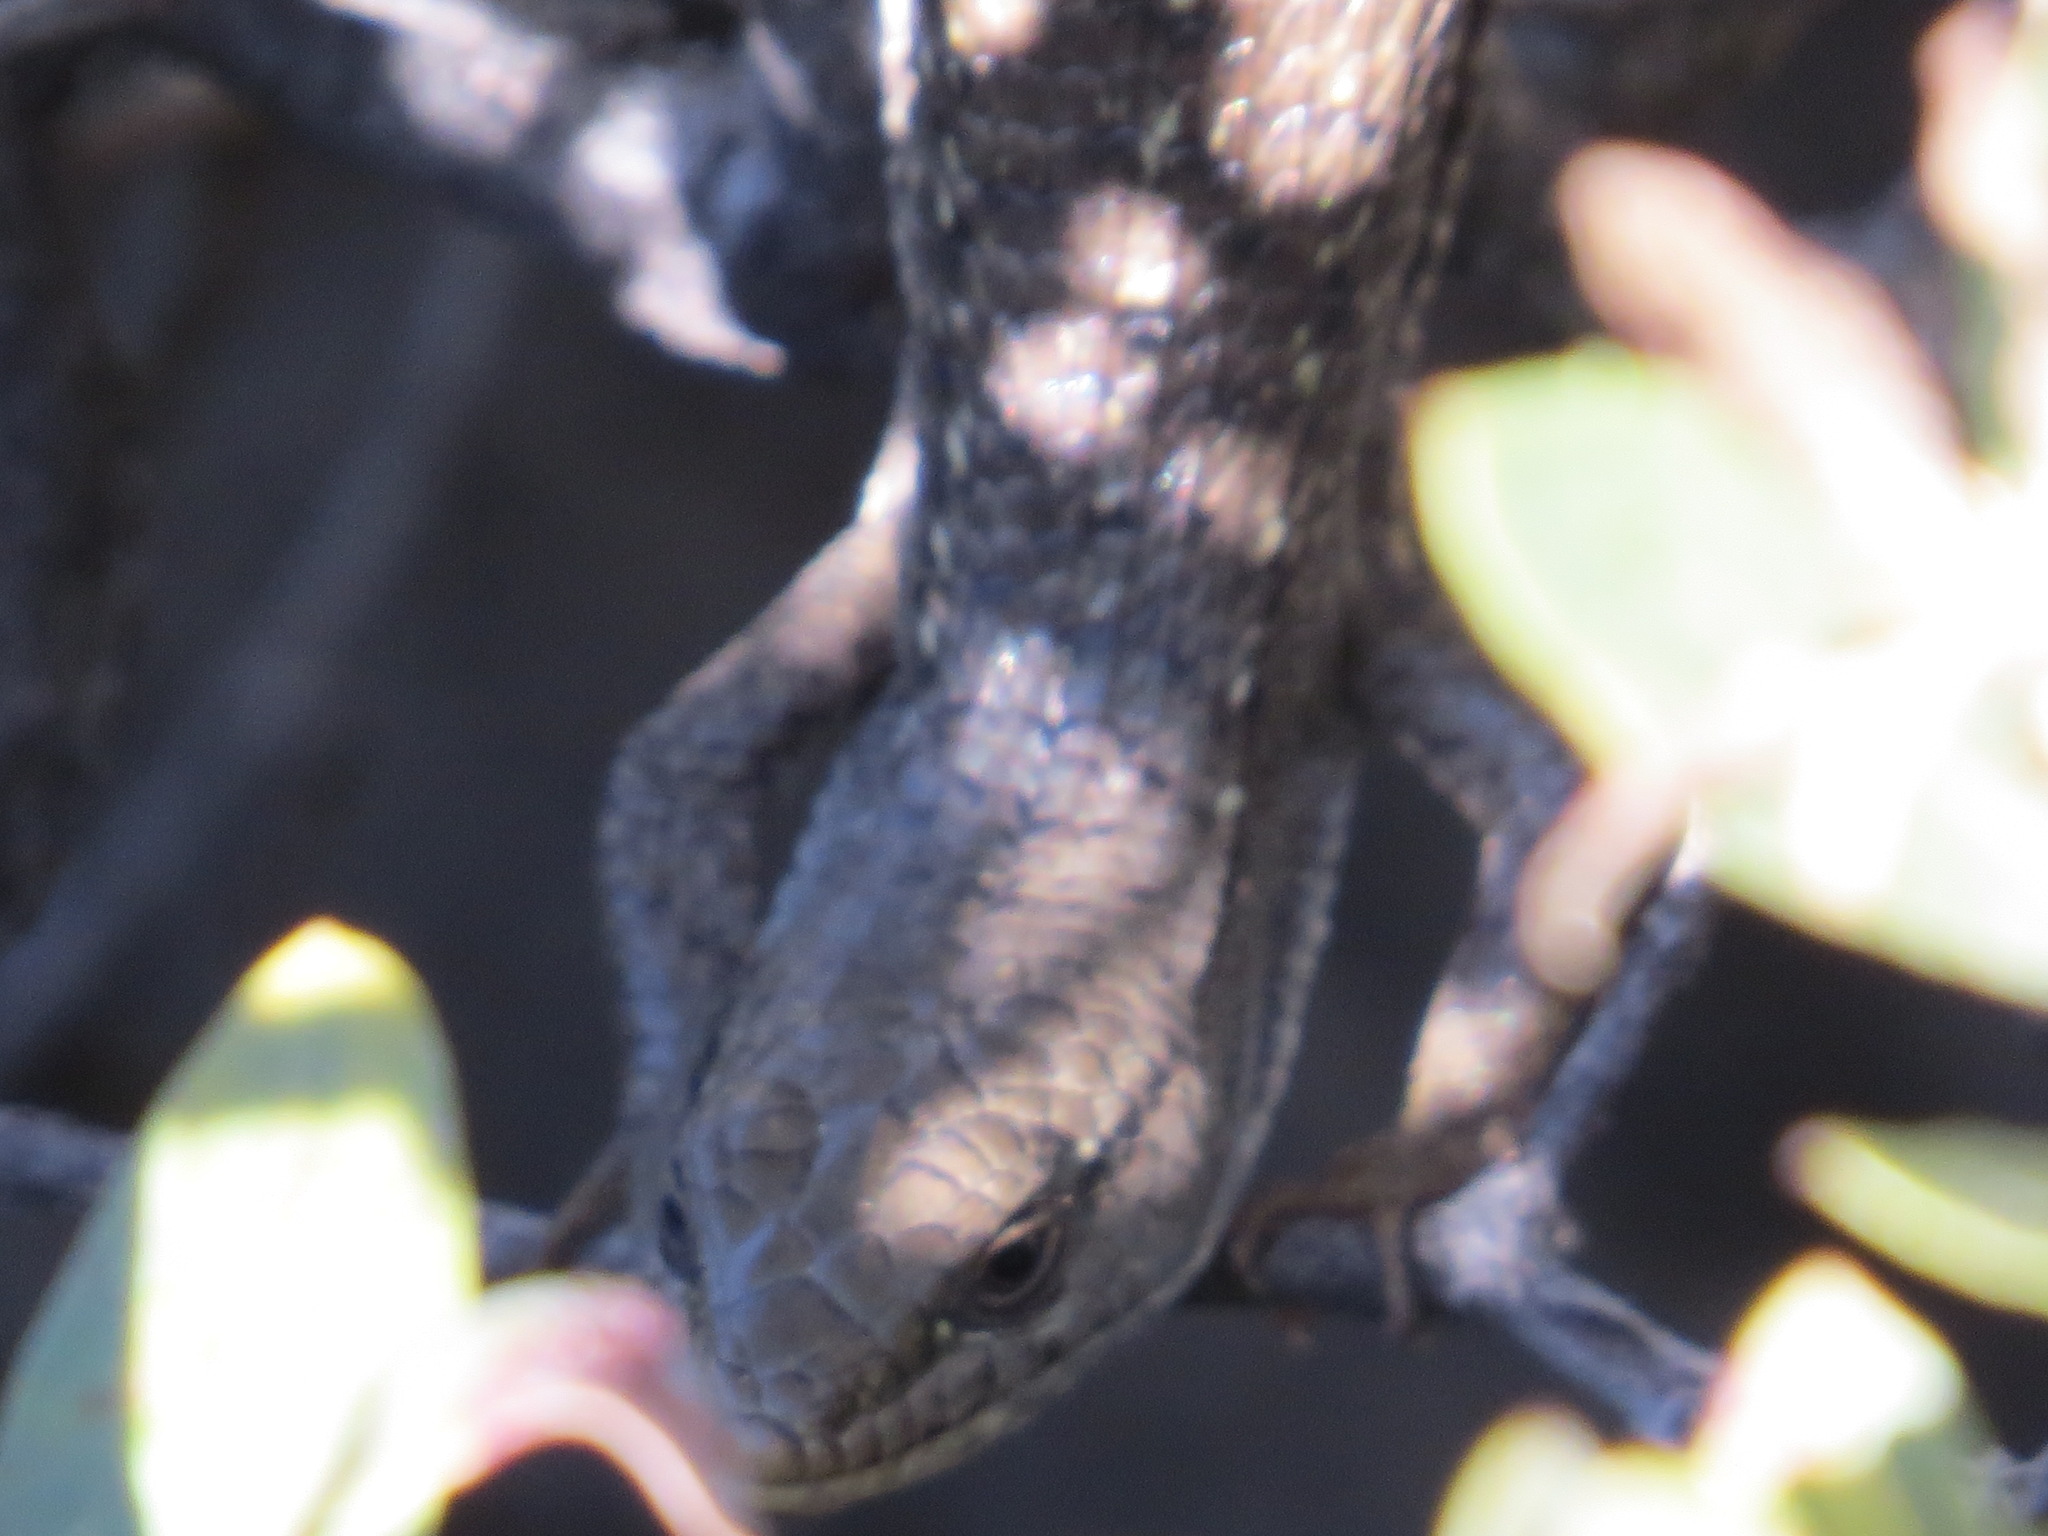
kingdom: Animalia
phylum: Chordata
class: Squamata
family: Anguidae
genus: Elgaria
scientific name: Elgaria multicarinata
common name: Southern alligator lizard
